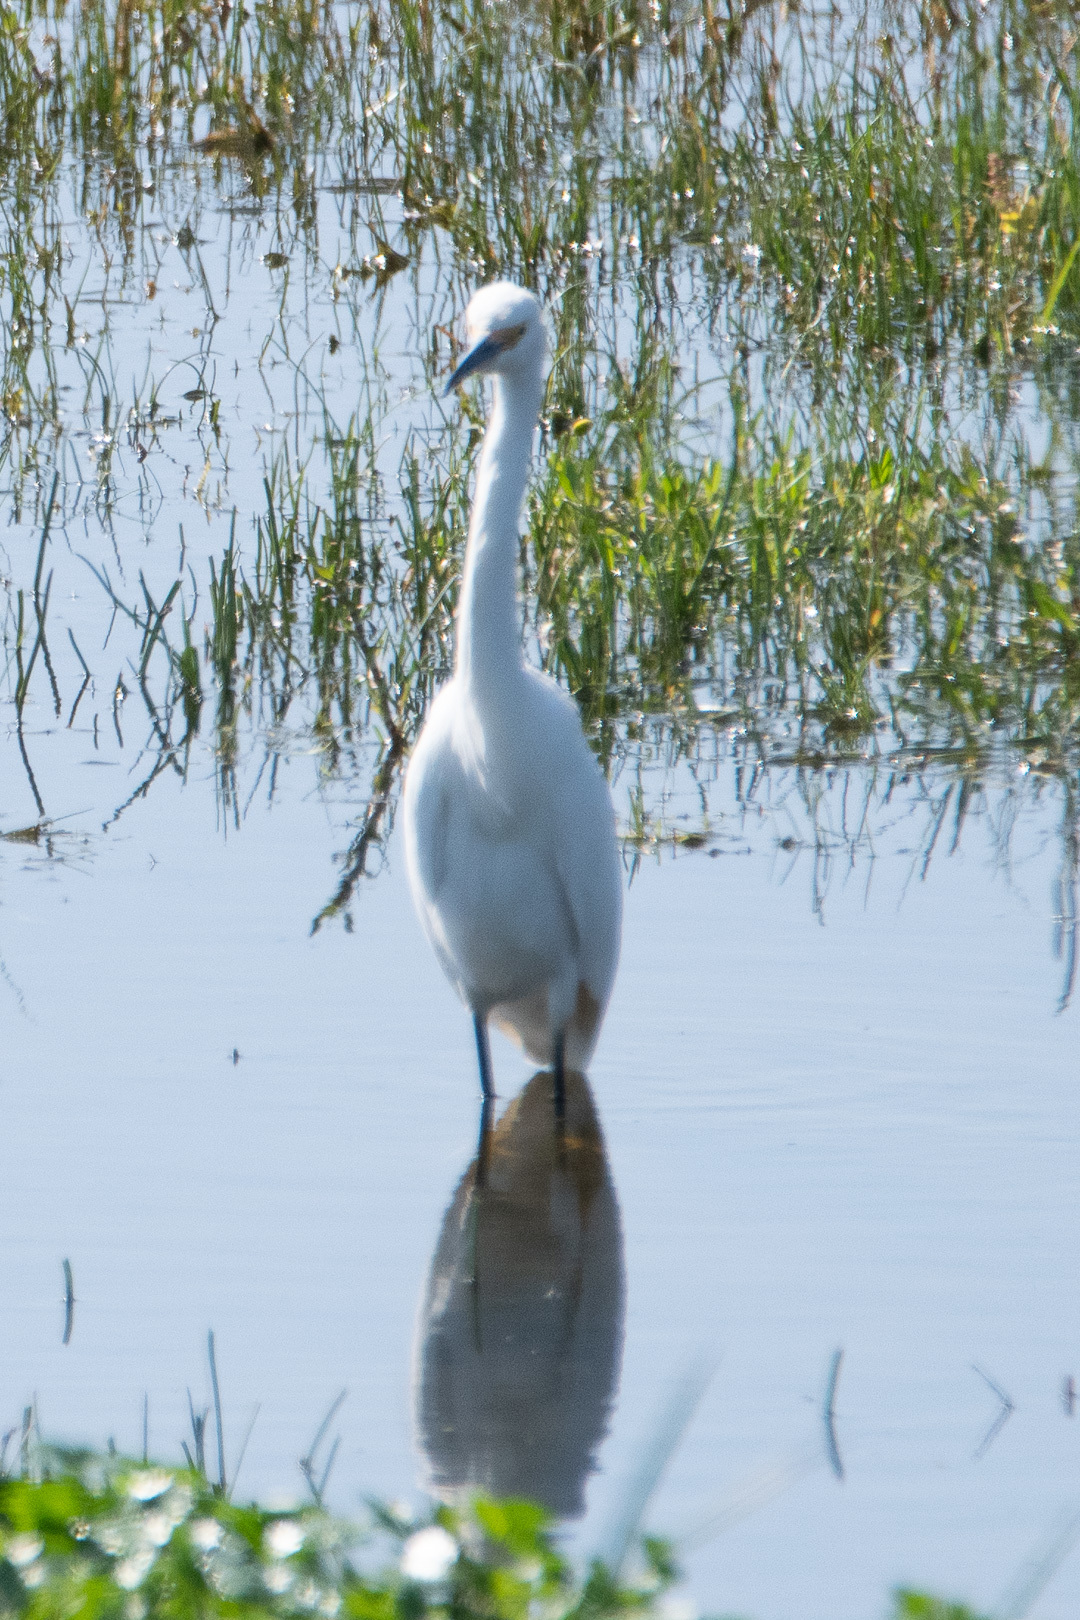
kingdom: Animalia
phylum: Chordata
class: Aves
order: Pelecaniformes
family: Ardeidae
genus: Egretta
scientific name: Egretta thula
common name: Snowy egret
